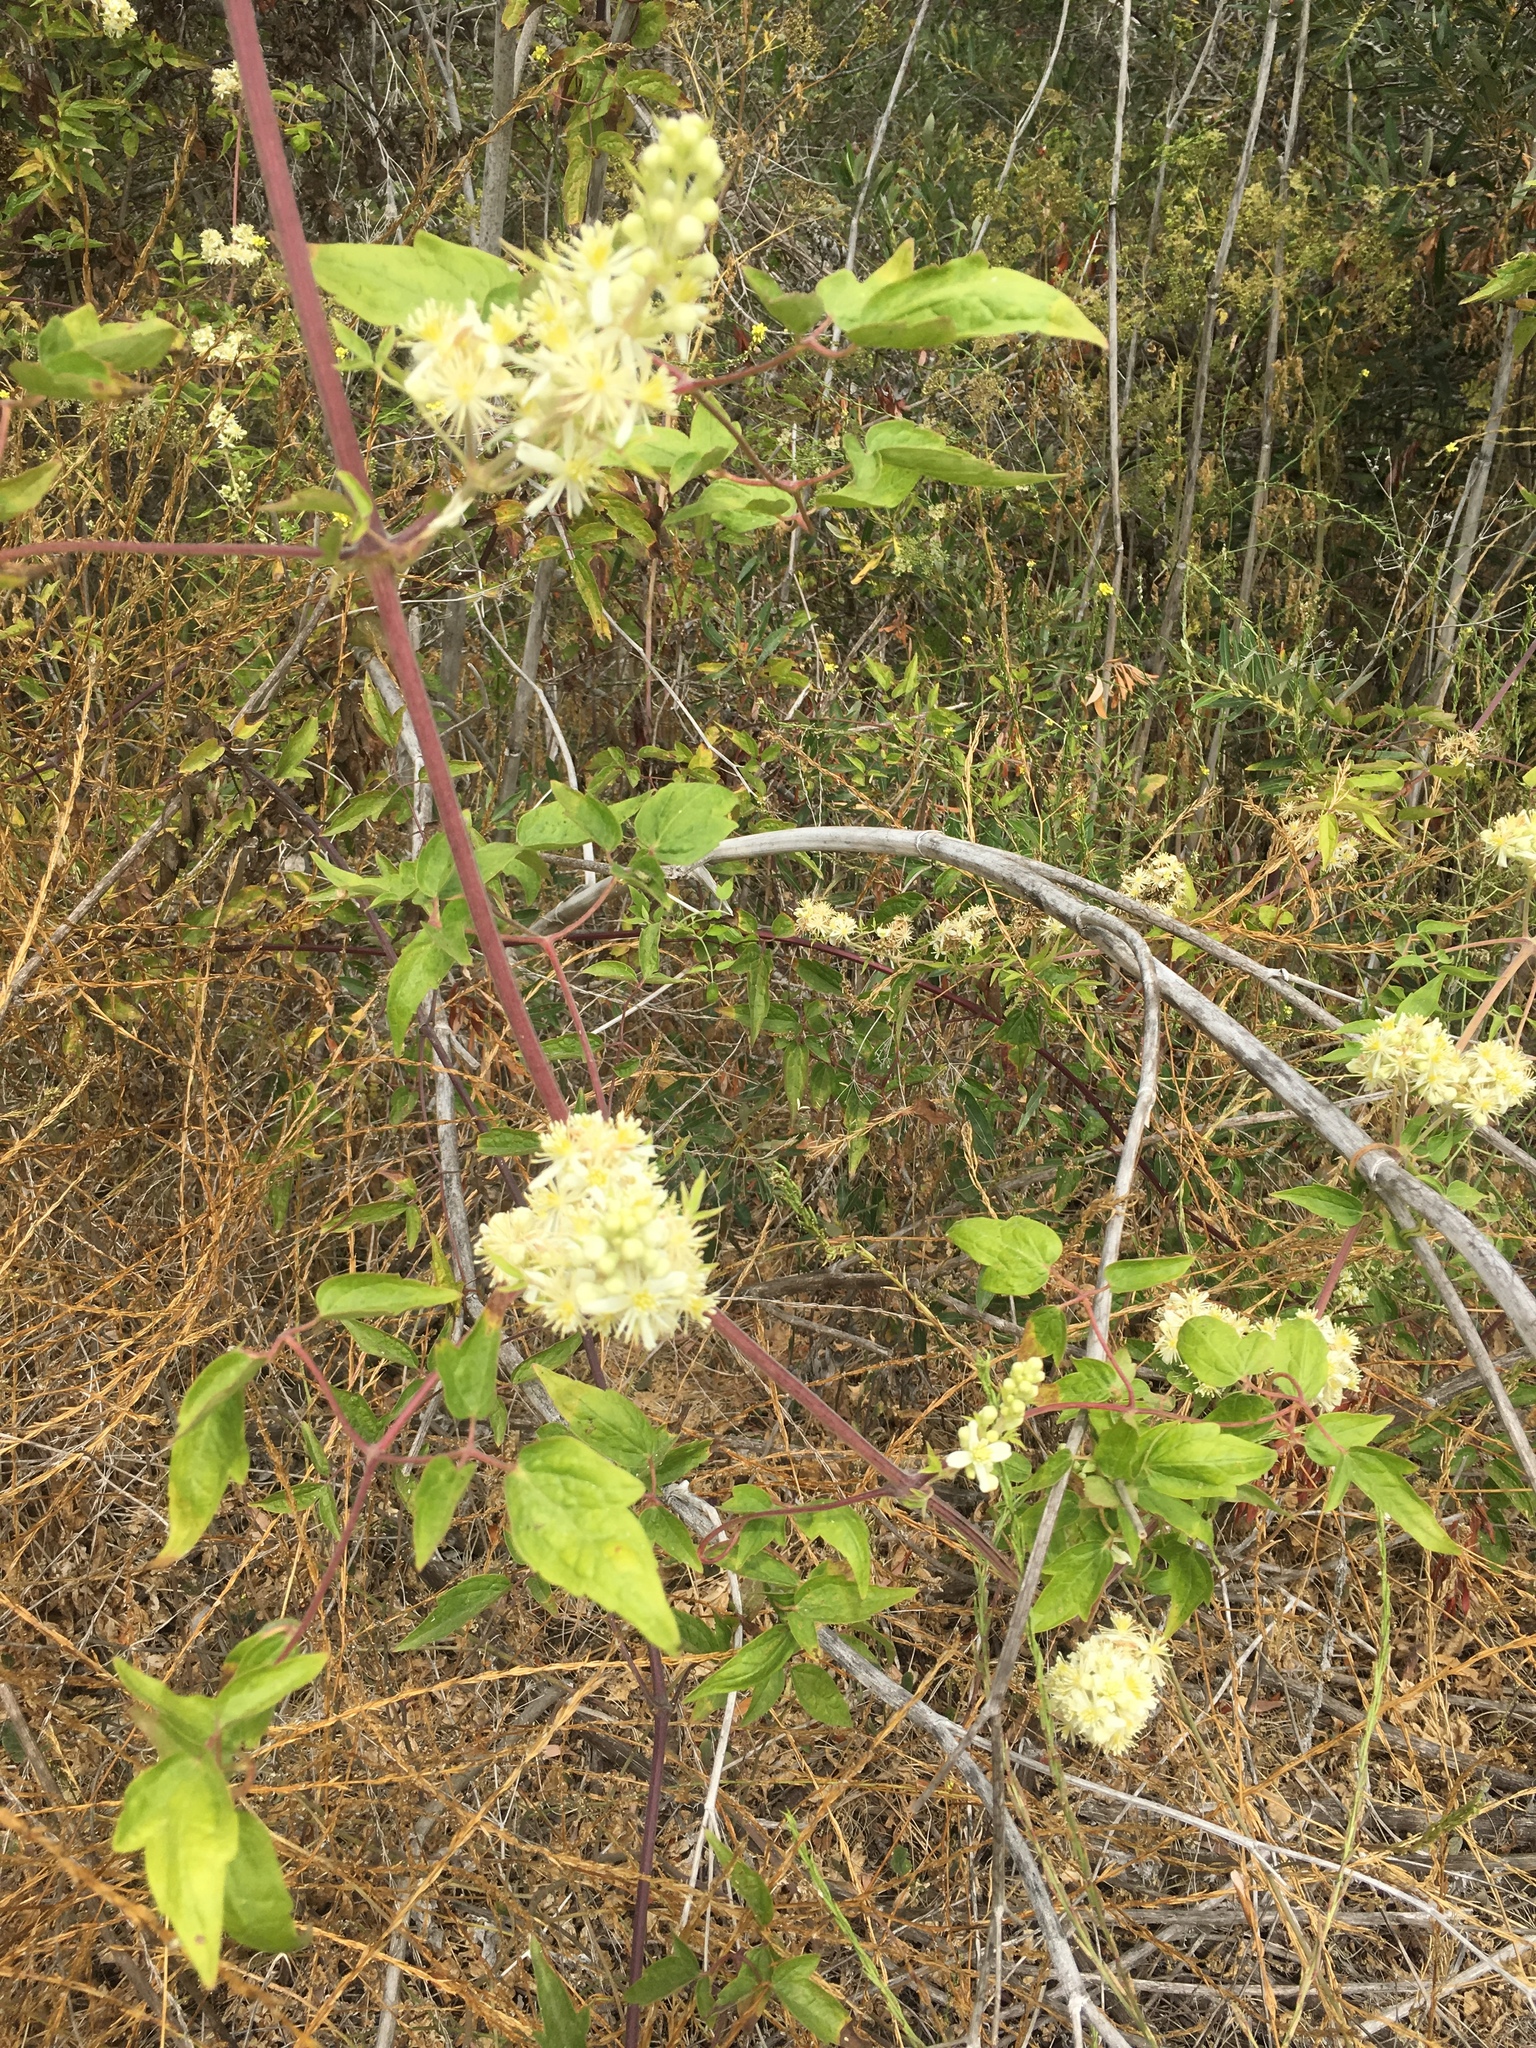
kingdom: Plantae
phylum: Tracheophyta
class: Magnoliopsida
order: Ranunculales
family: Ranunculaceae
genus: Clematis
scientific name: Clematis ligusticifolia
